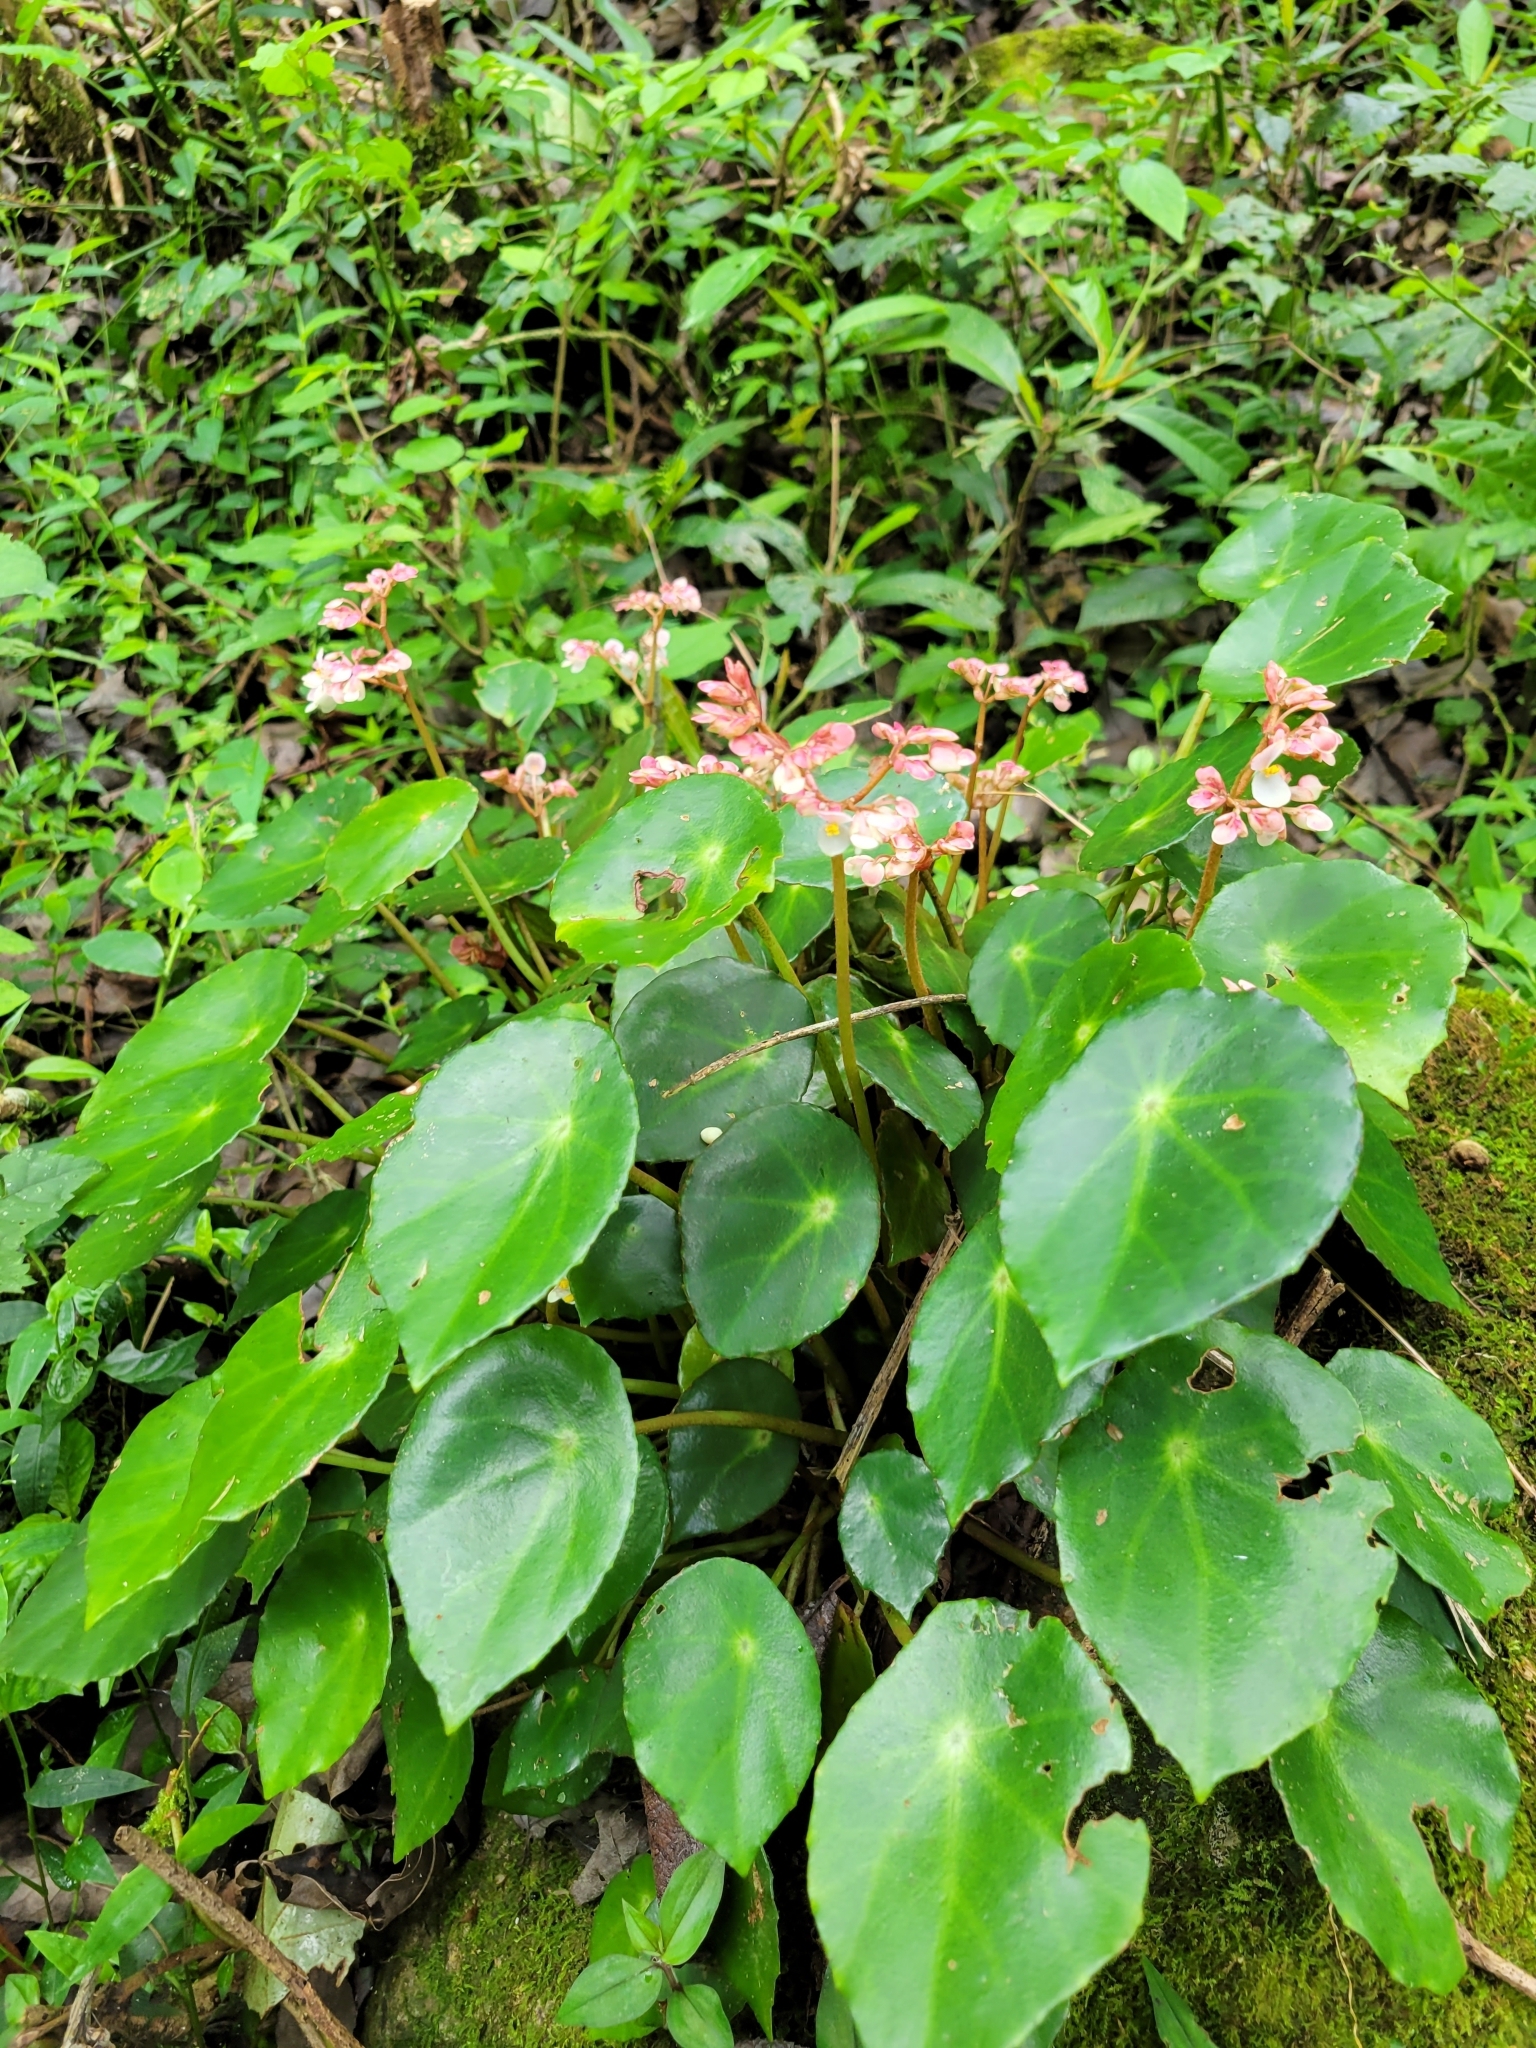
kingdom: Plantae
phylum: Tracheophyta
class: Magnoliopsida
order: Cucurbitales
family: Begoniaceae
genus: Begonia
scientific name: Begonia conchifolia
